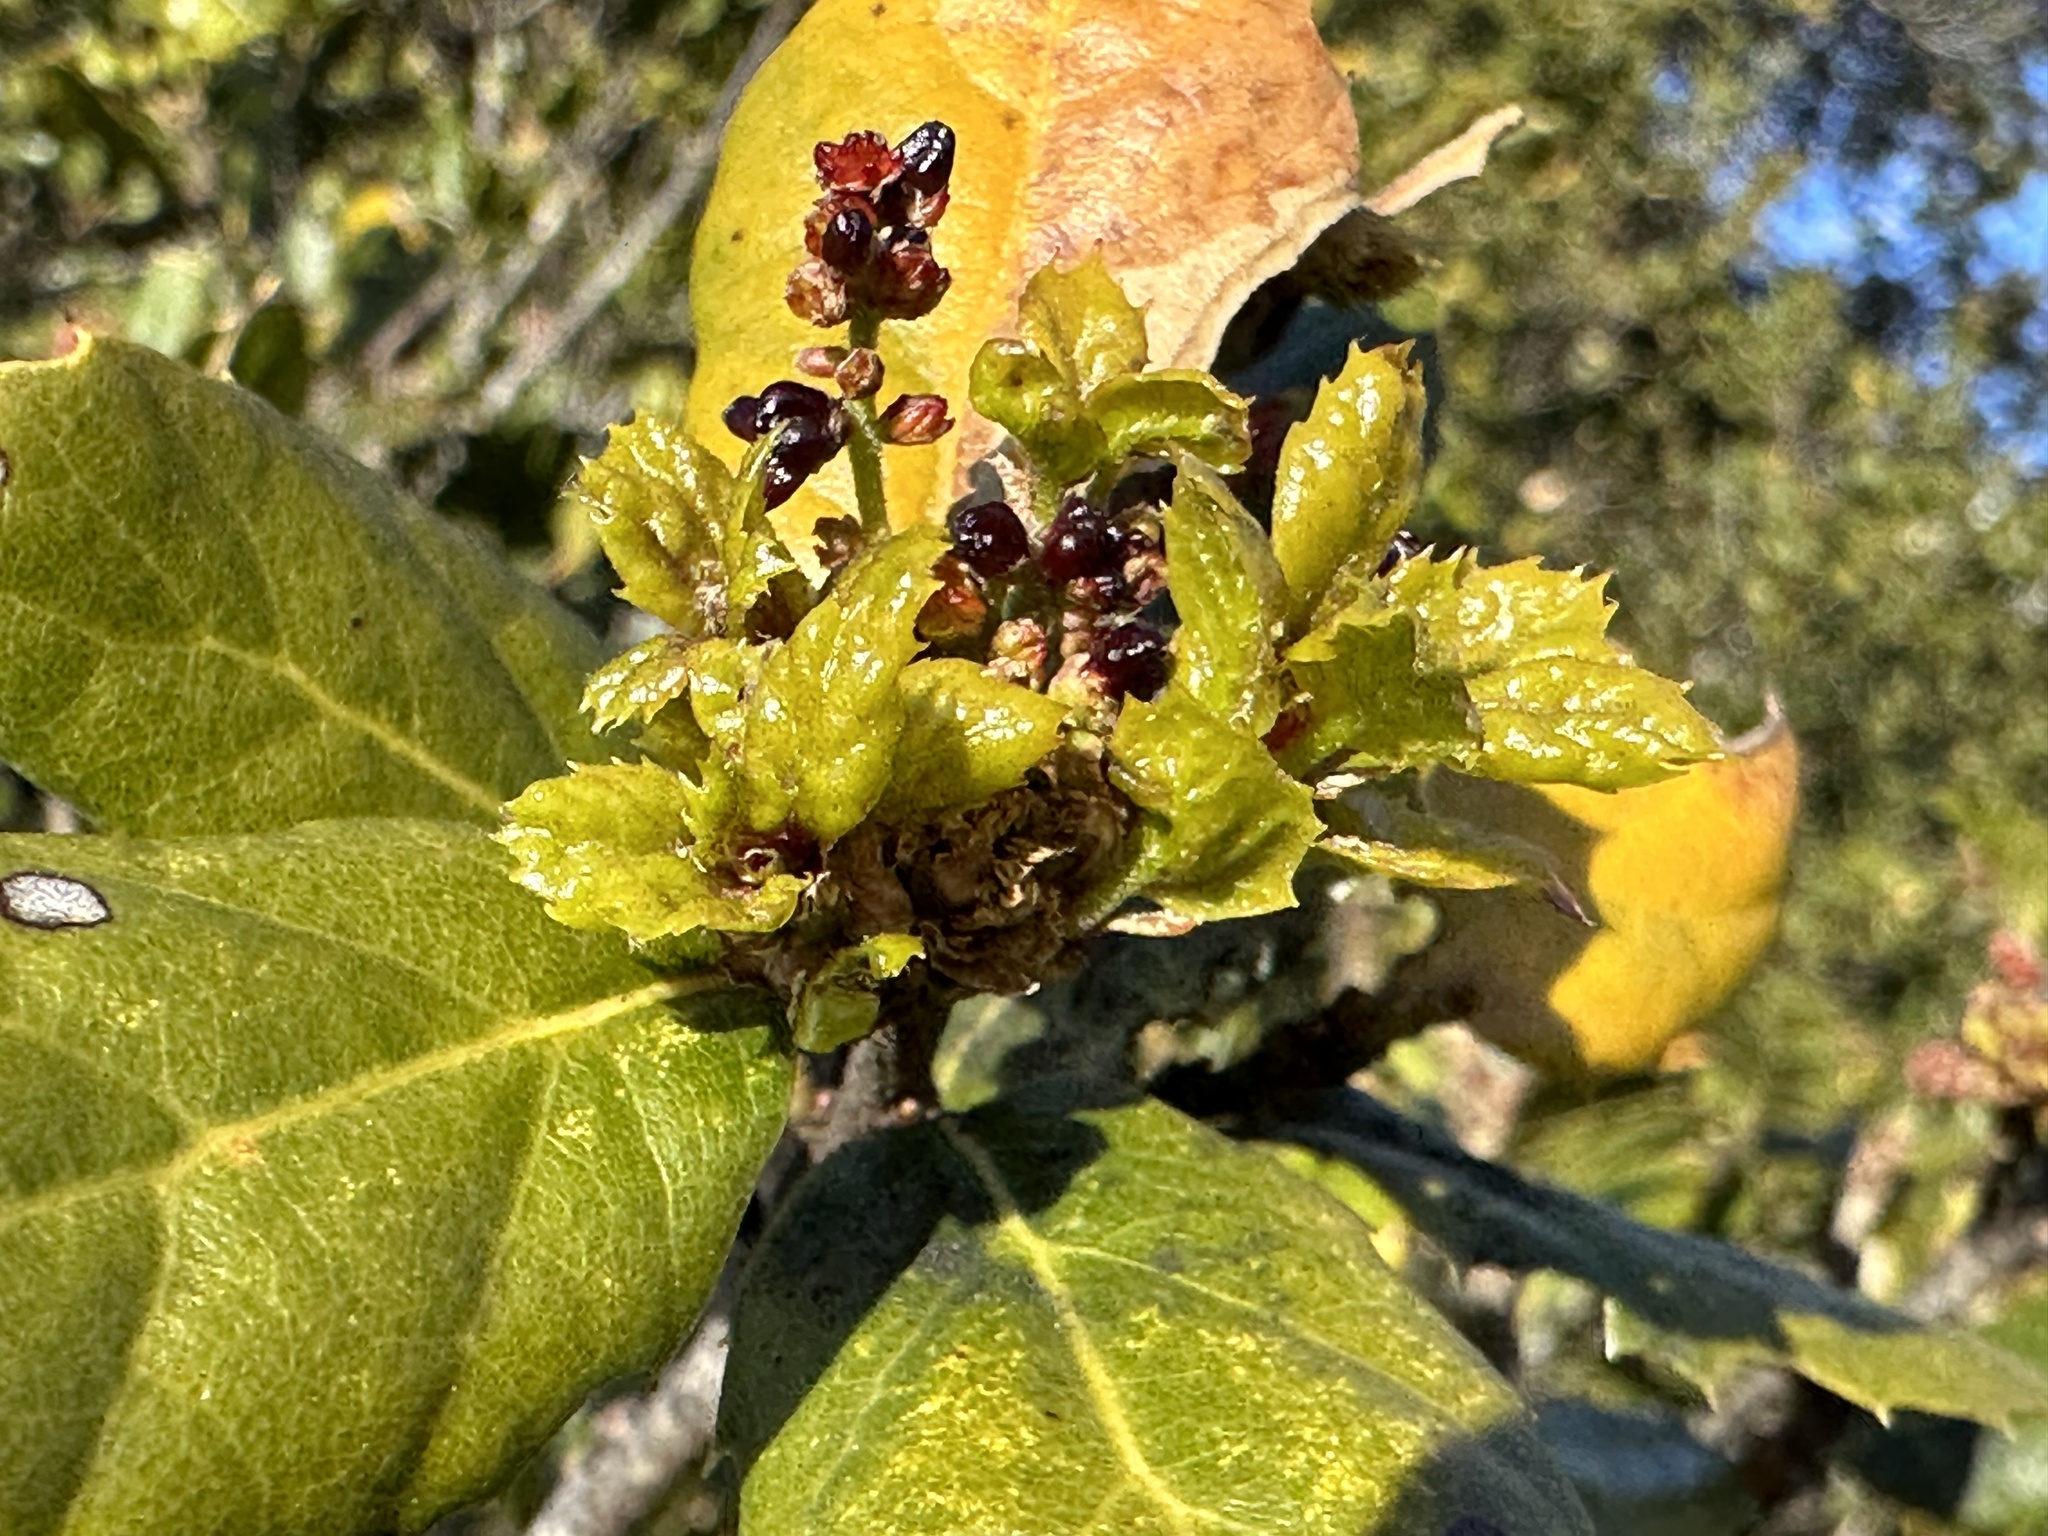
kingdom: Animalia
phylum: Arthropoda
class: Insecta
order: Hymenoptera
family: Cynipidae
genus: Dryocosmus
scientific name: Dryocosmus
